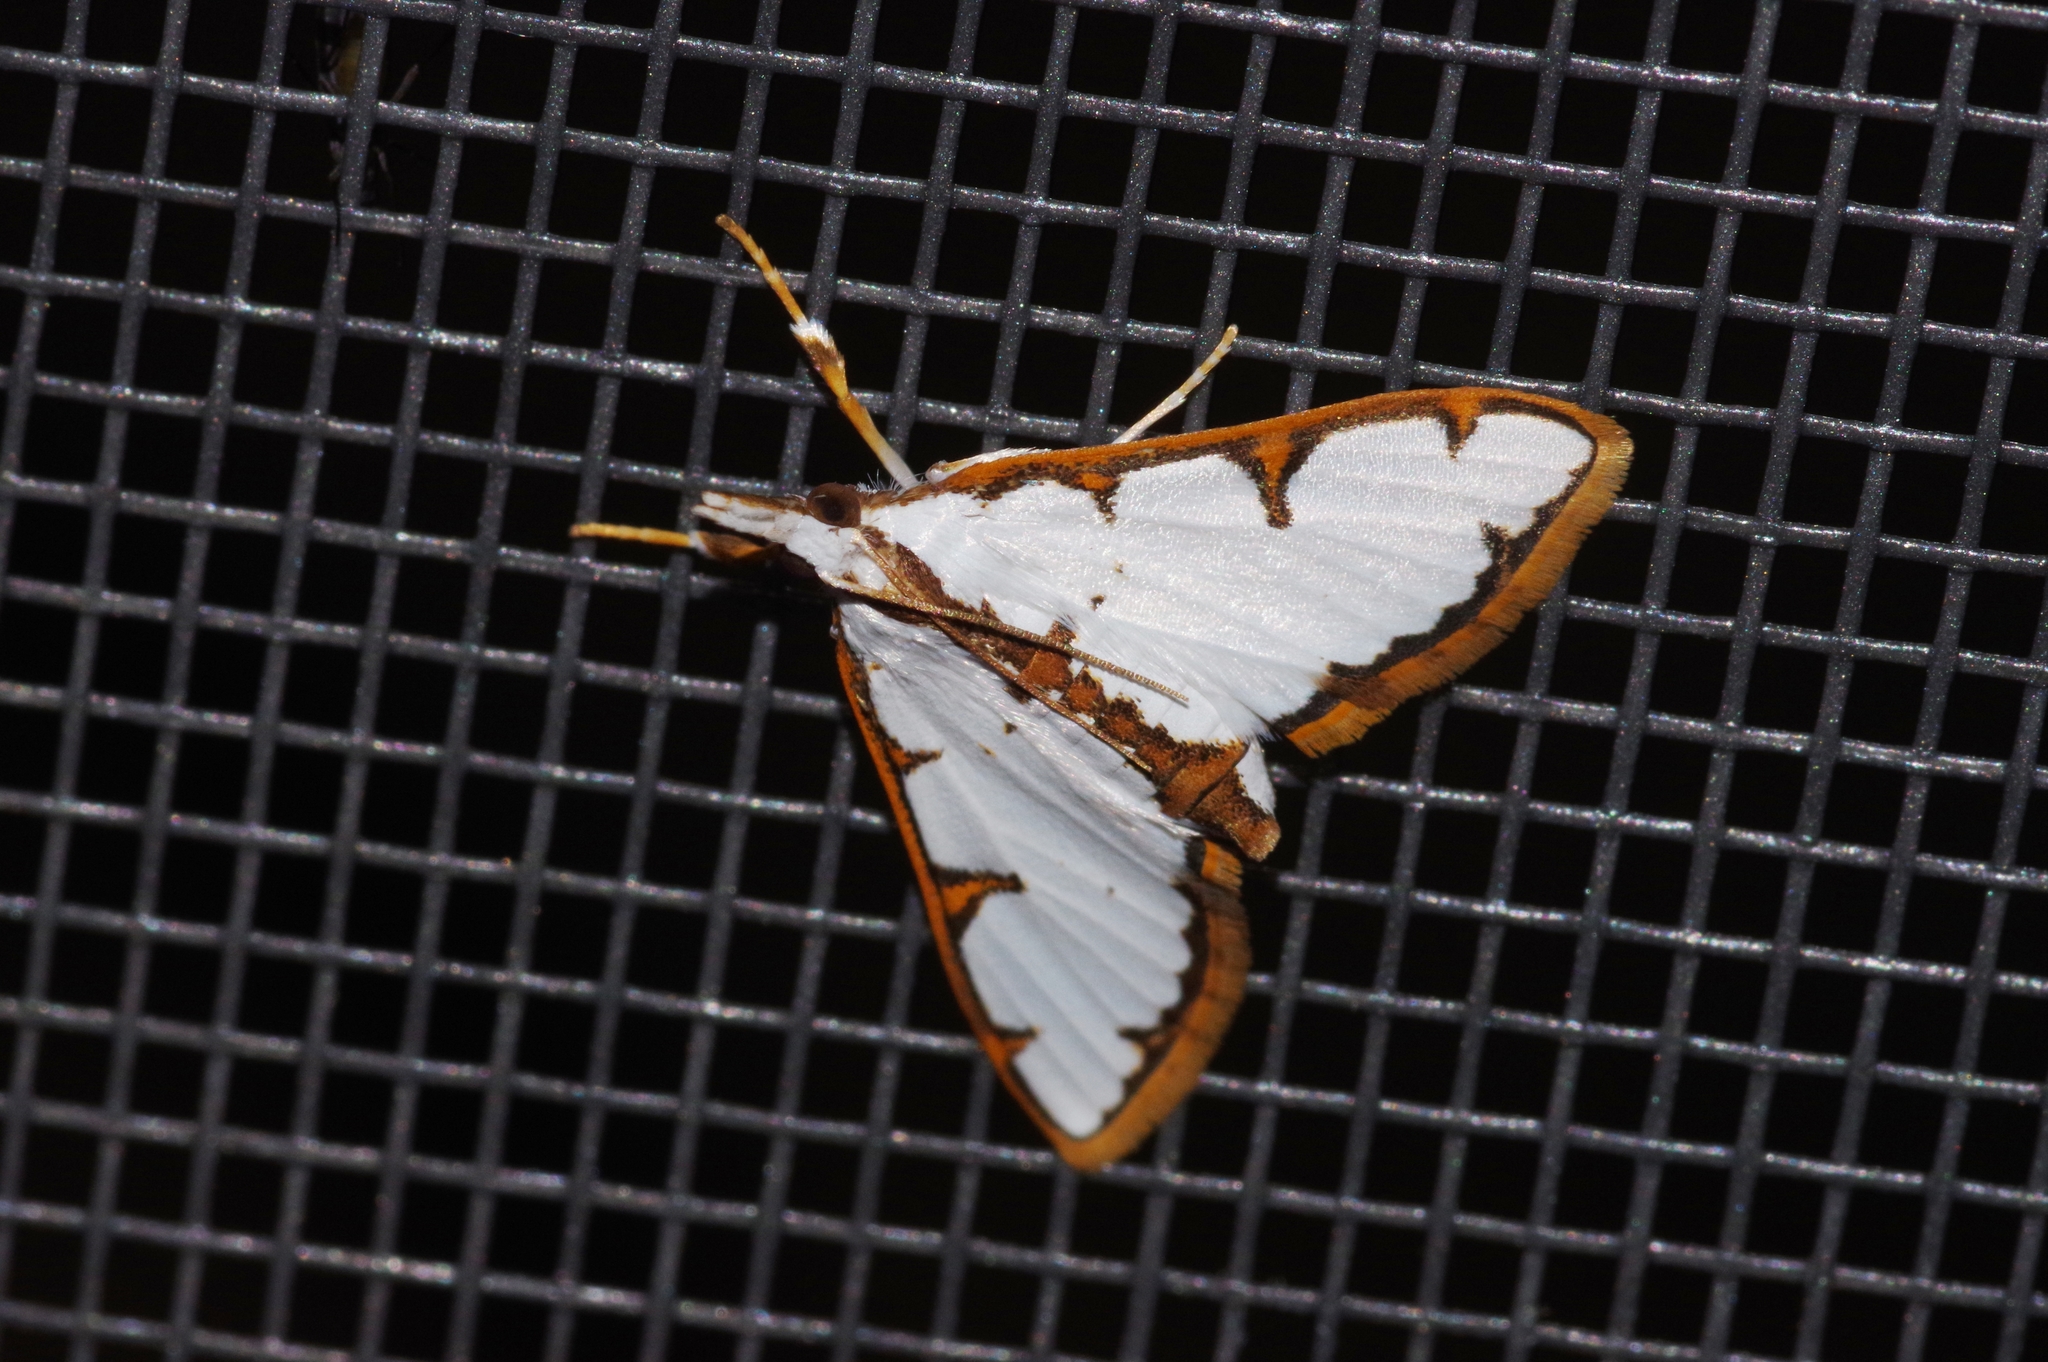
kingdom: Animalia
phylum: Arthropoda
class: Insecta
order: Lepidoptera
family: Crambidae
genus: Cirrhochrista
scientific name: Cirrhochrista brizoalis
